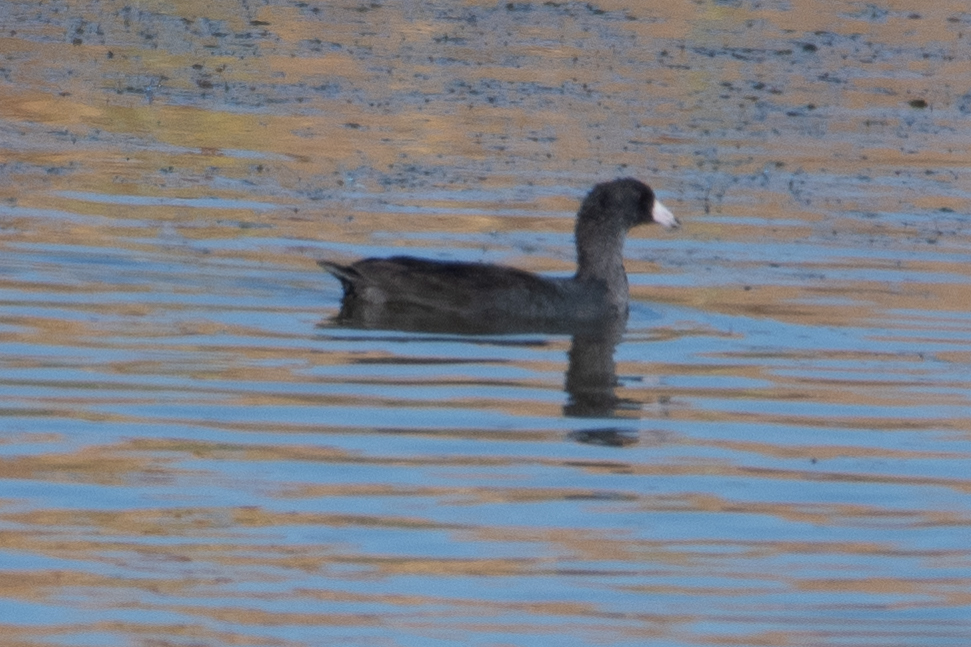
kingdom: Animalia
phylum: Chordata
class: Aves
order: Gruiformes
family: Rallidae
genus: Fulica
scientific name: Fulica americana
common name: American coot
